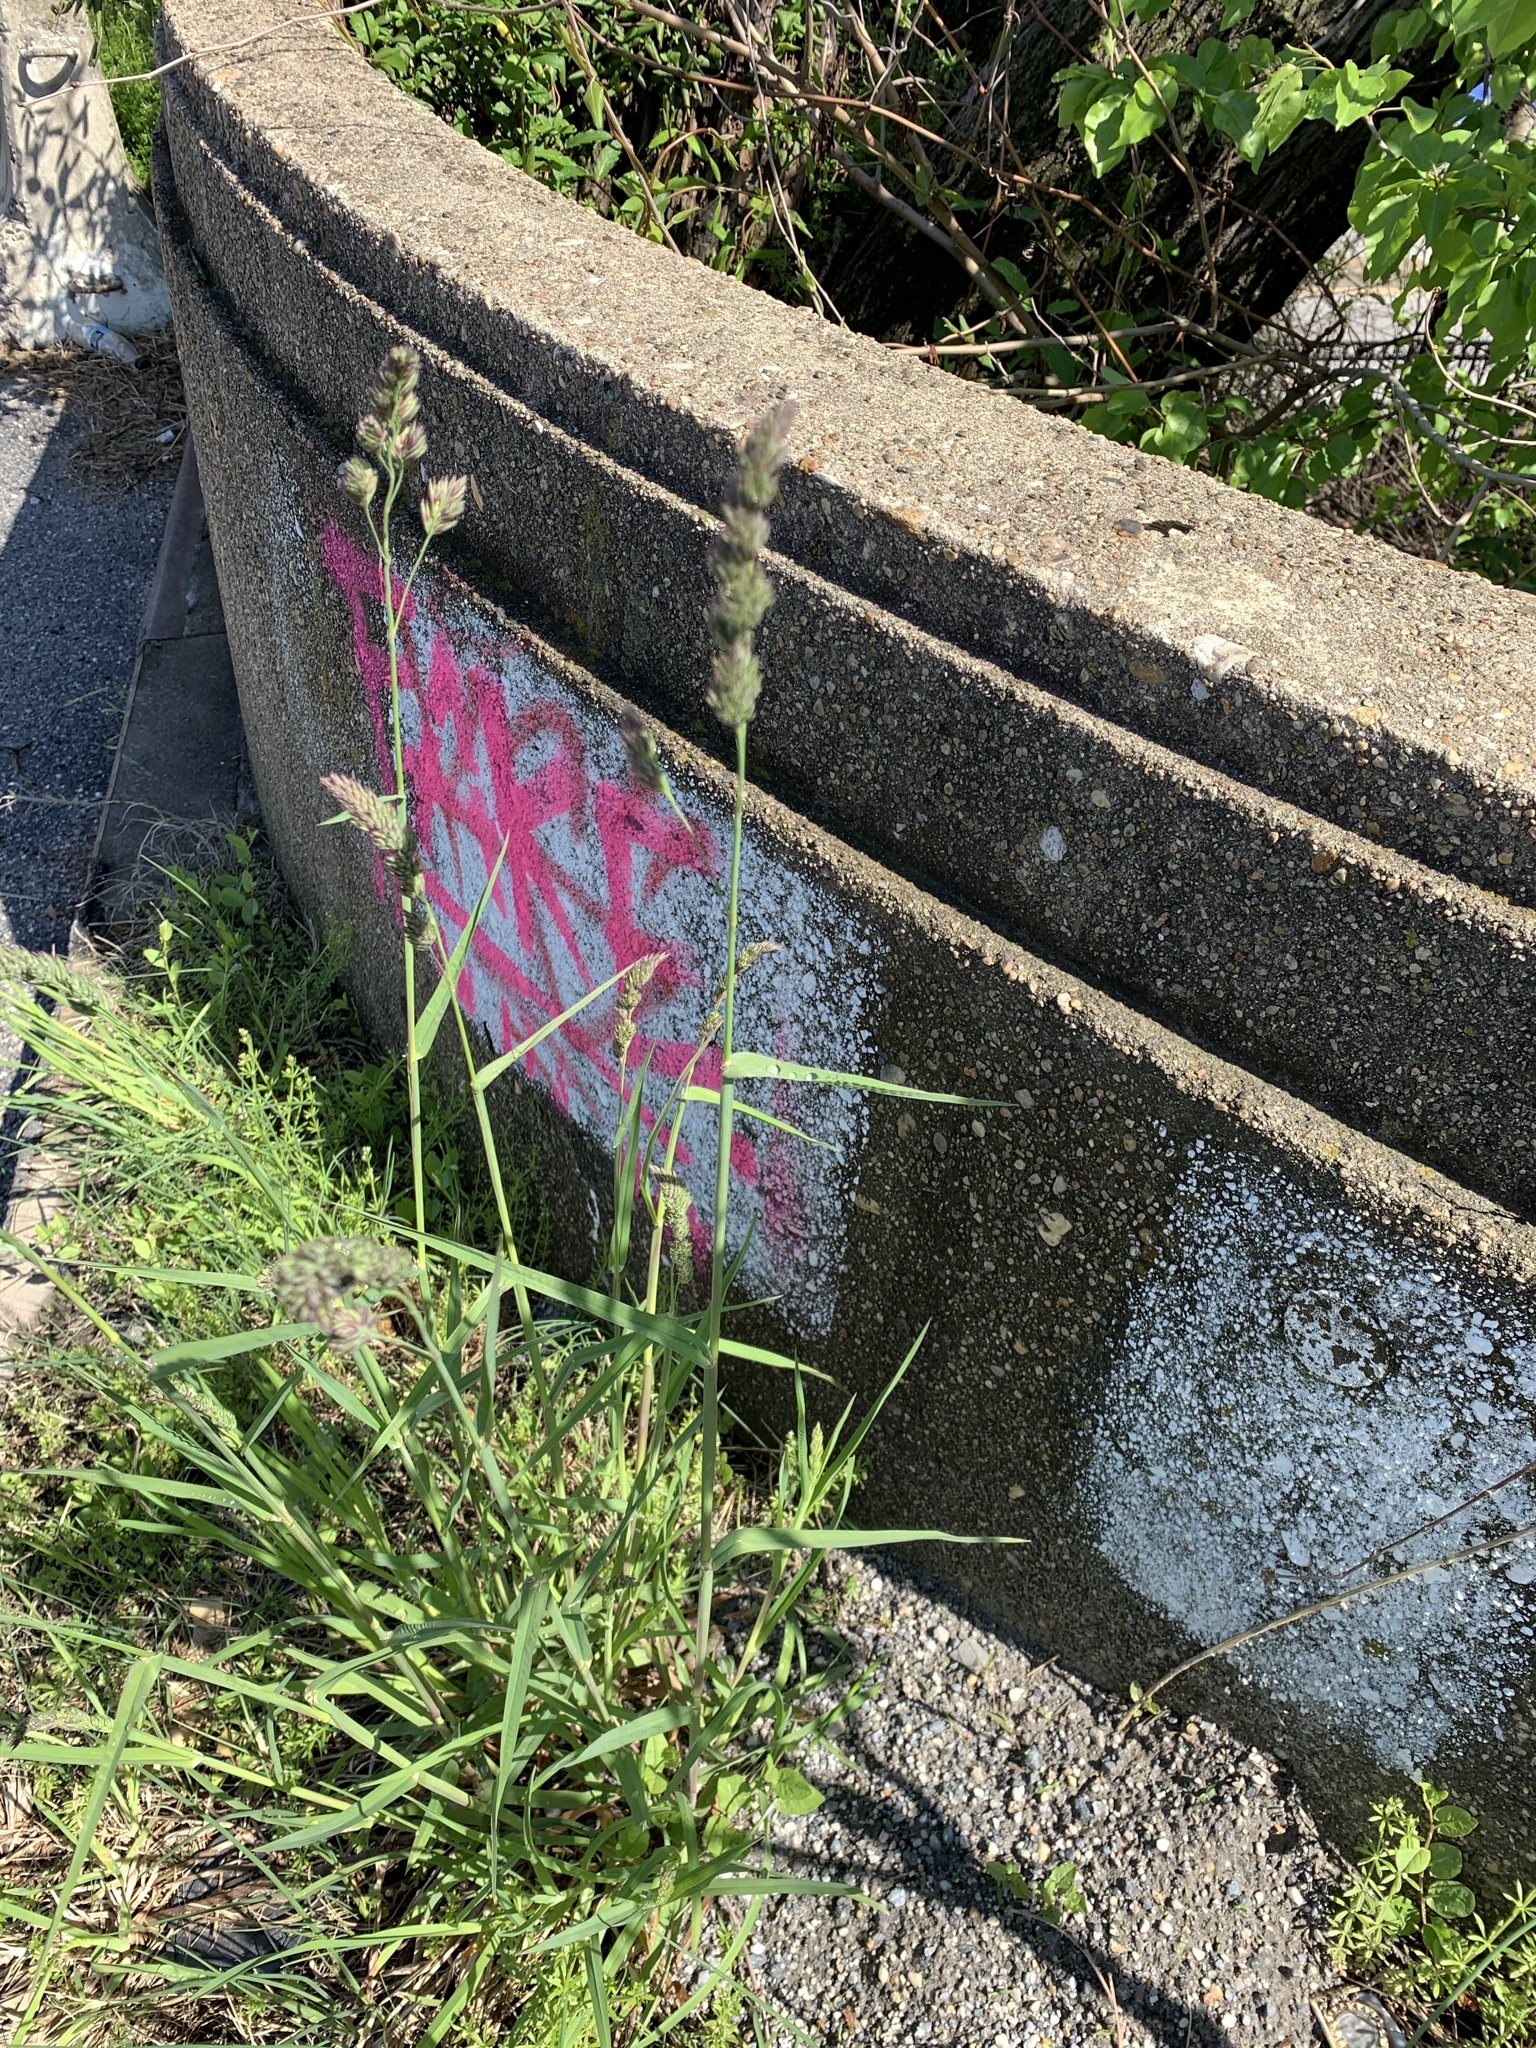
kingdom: Plantae
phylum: Tracheophyta
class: Liliopsida
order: Poales
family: Poaceae
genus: Dactylis
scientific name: Dactylis glomerata
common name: Orchardgrass
